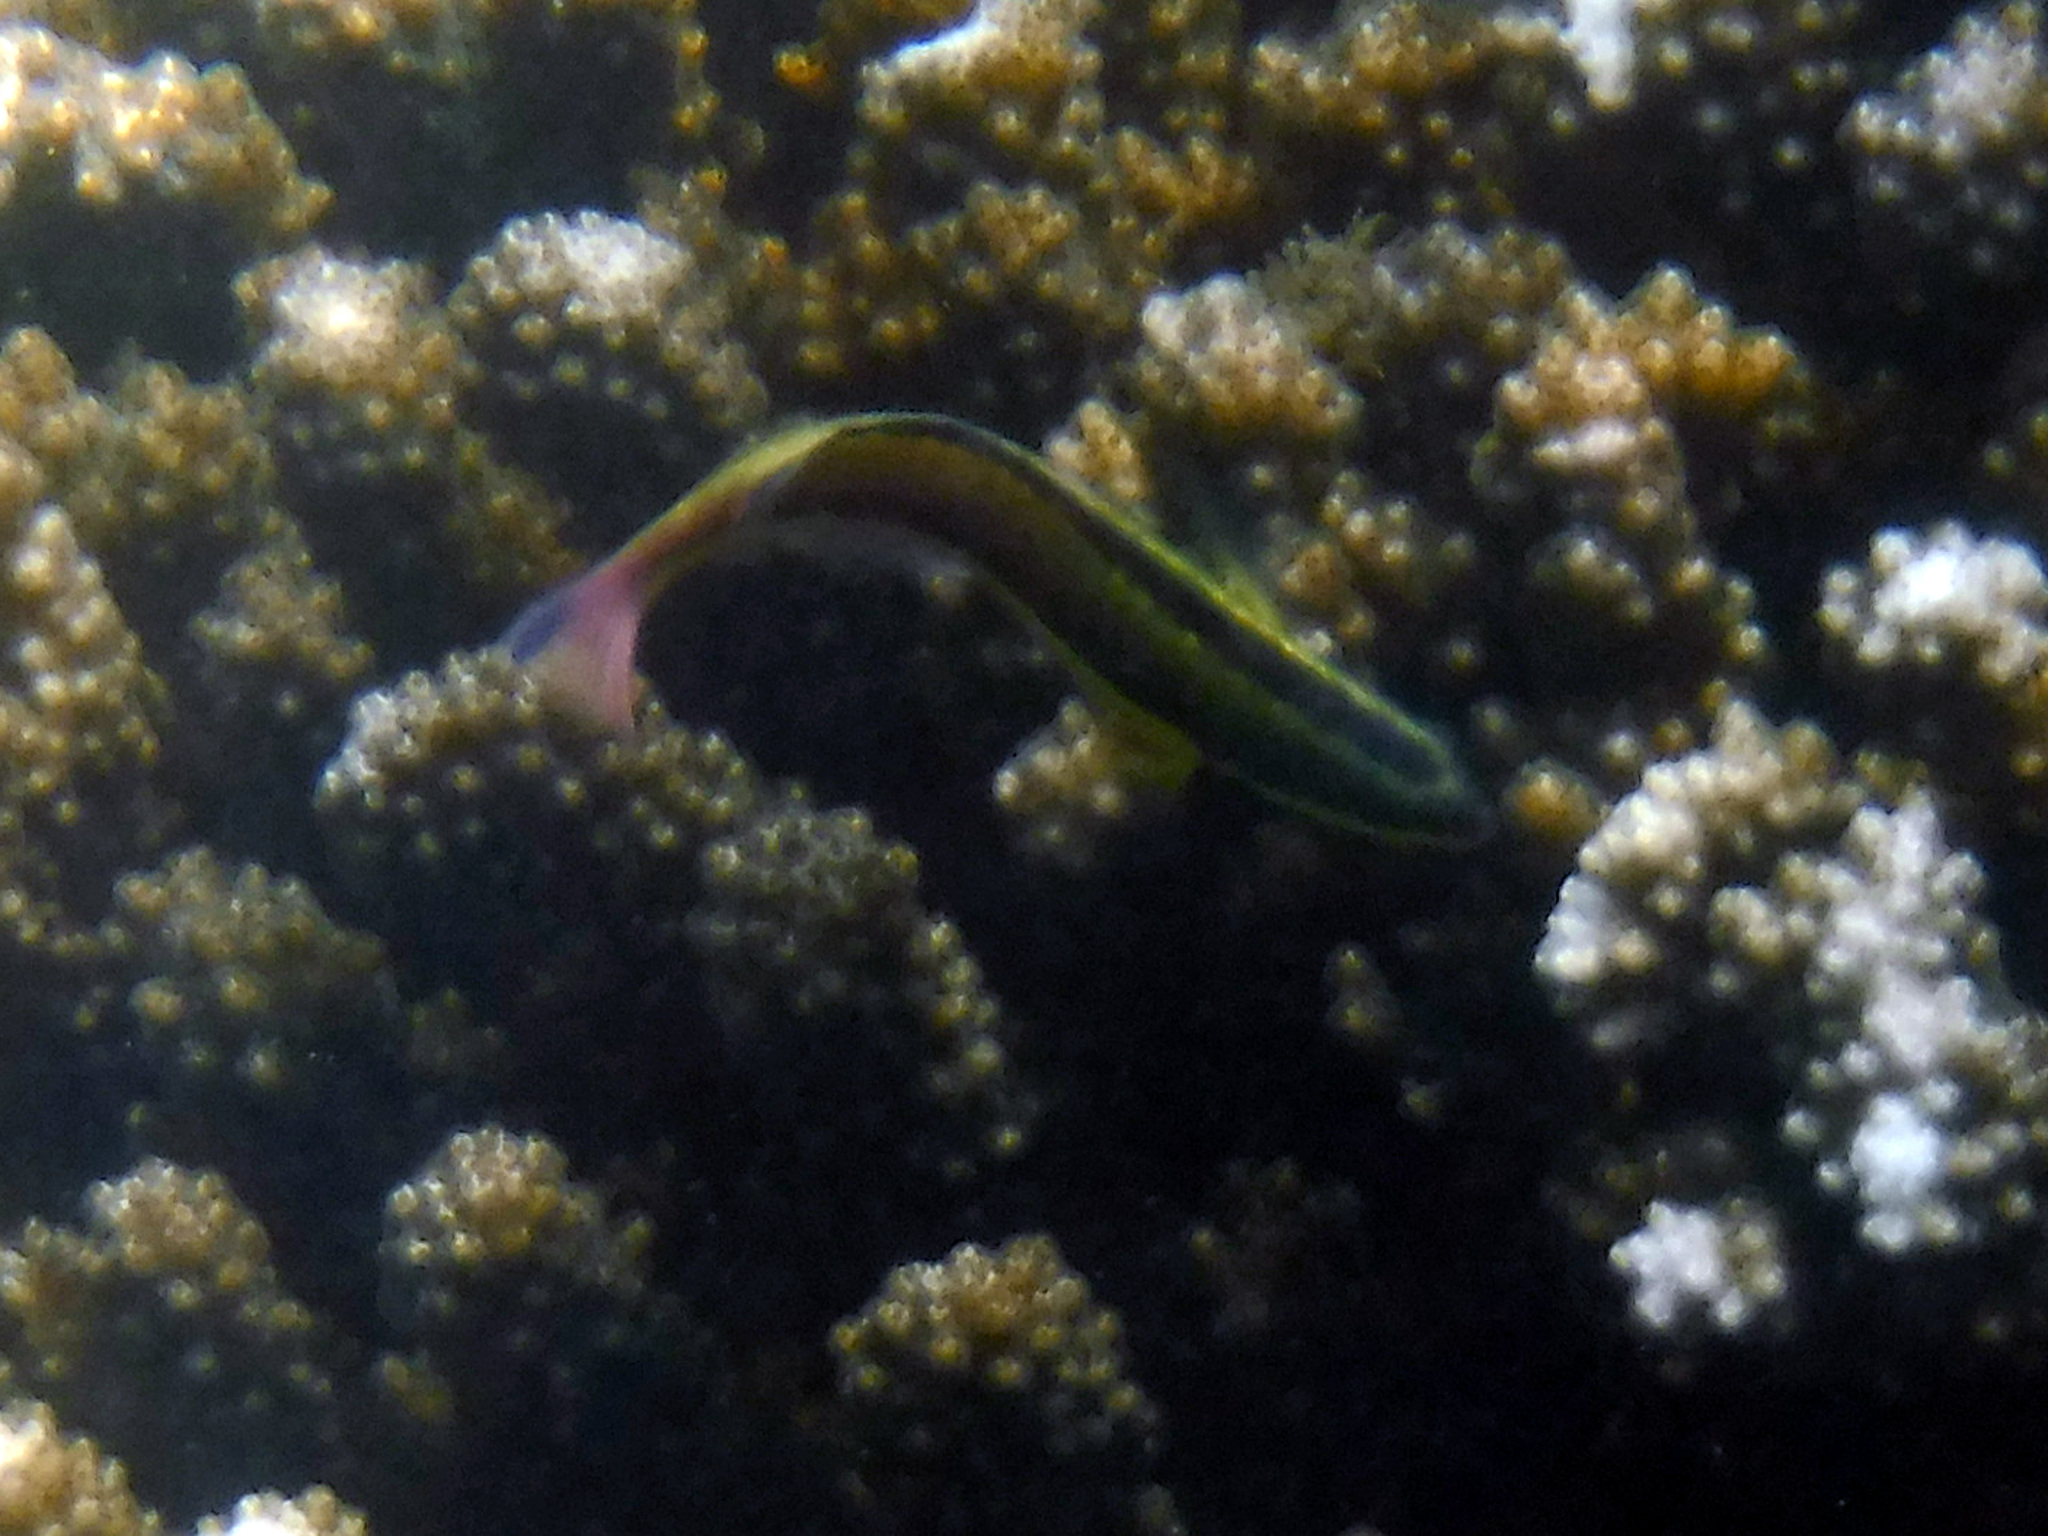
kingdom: Animalia
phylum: Chordata
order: Perciformes
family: Labridae
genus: Thalassoma
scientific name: Thalassoma lucasanum
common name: Cortez rainbow wrasse
